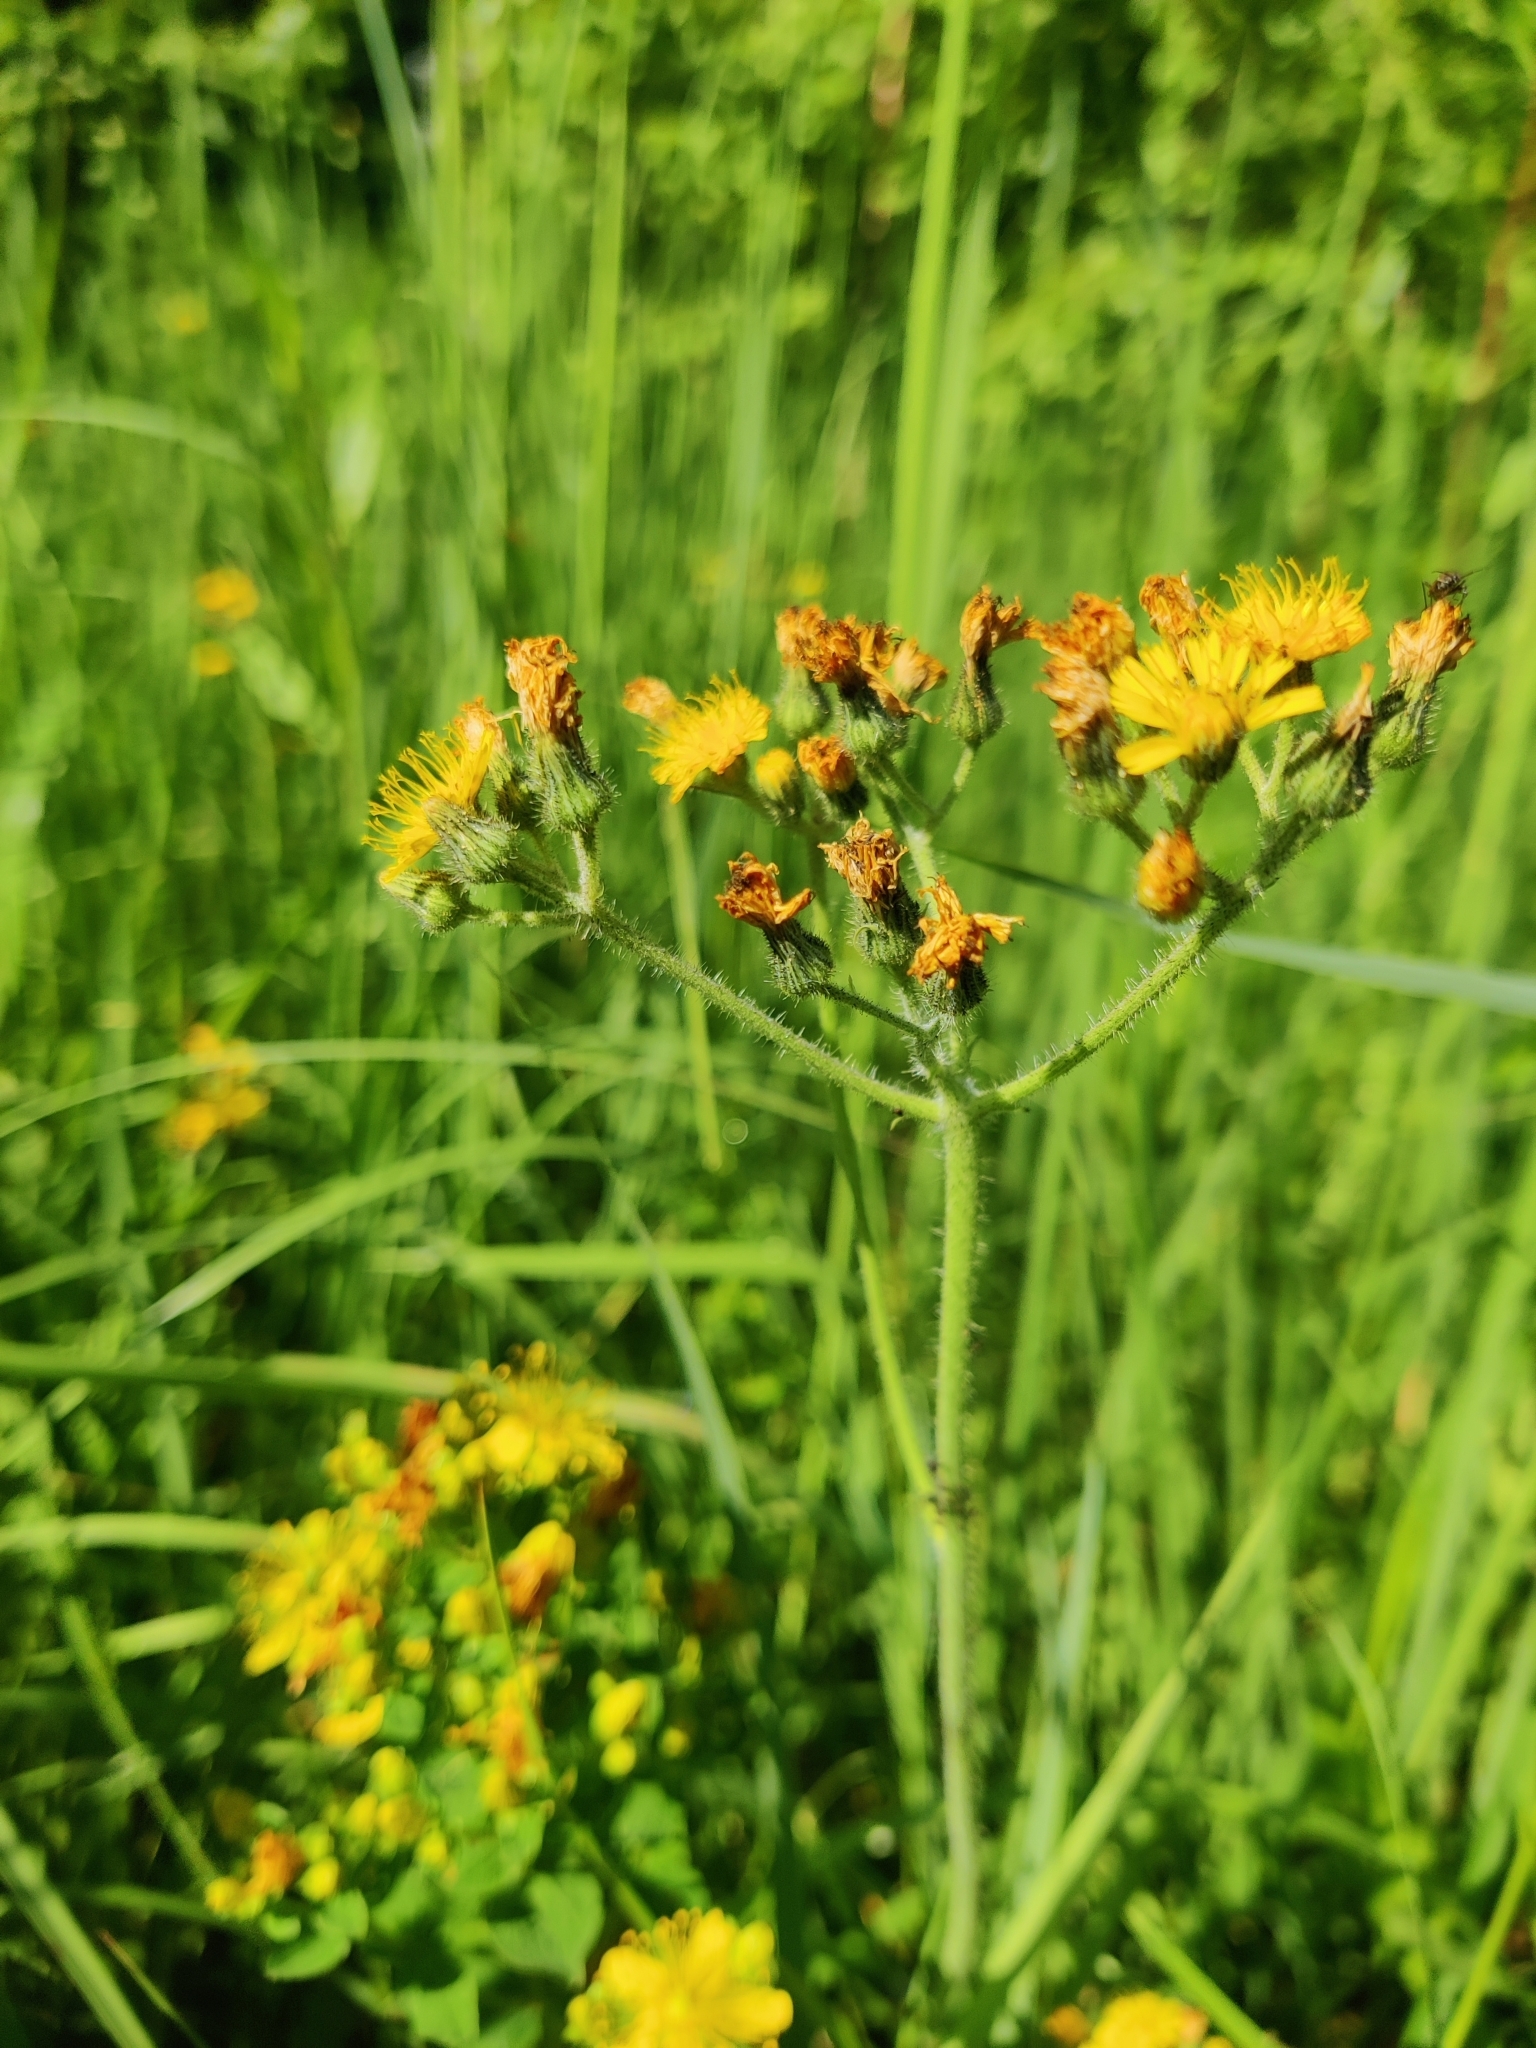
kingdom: Plantae
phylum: Tracheophyta
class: Magnoliopsida
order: Asterales
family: Asteraceae
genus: Pilosella
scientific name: Pilosella
